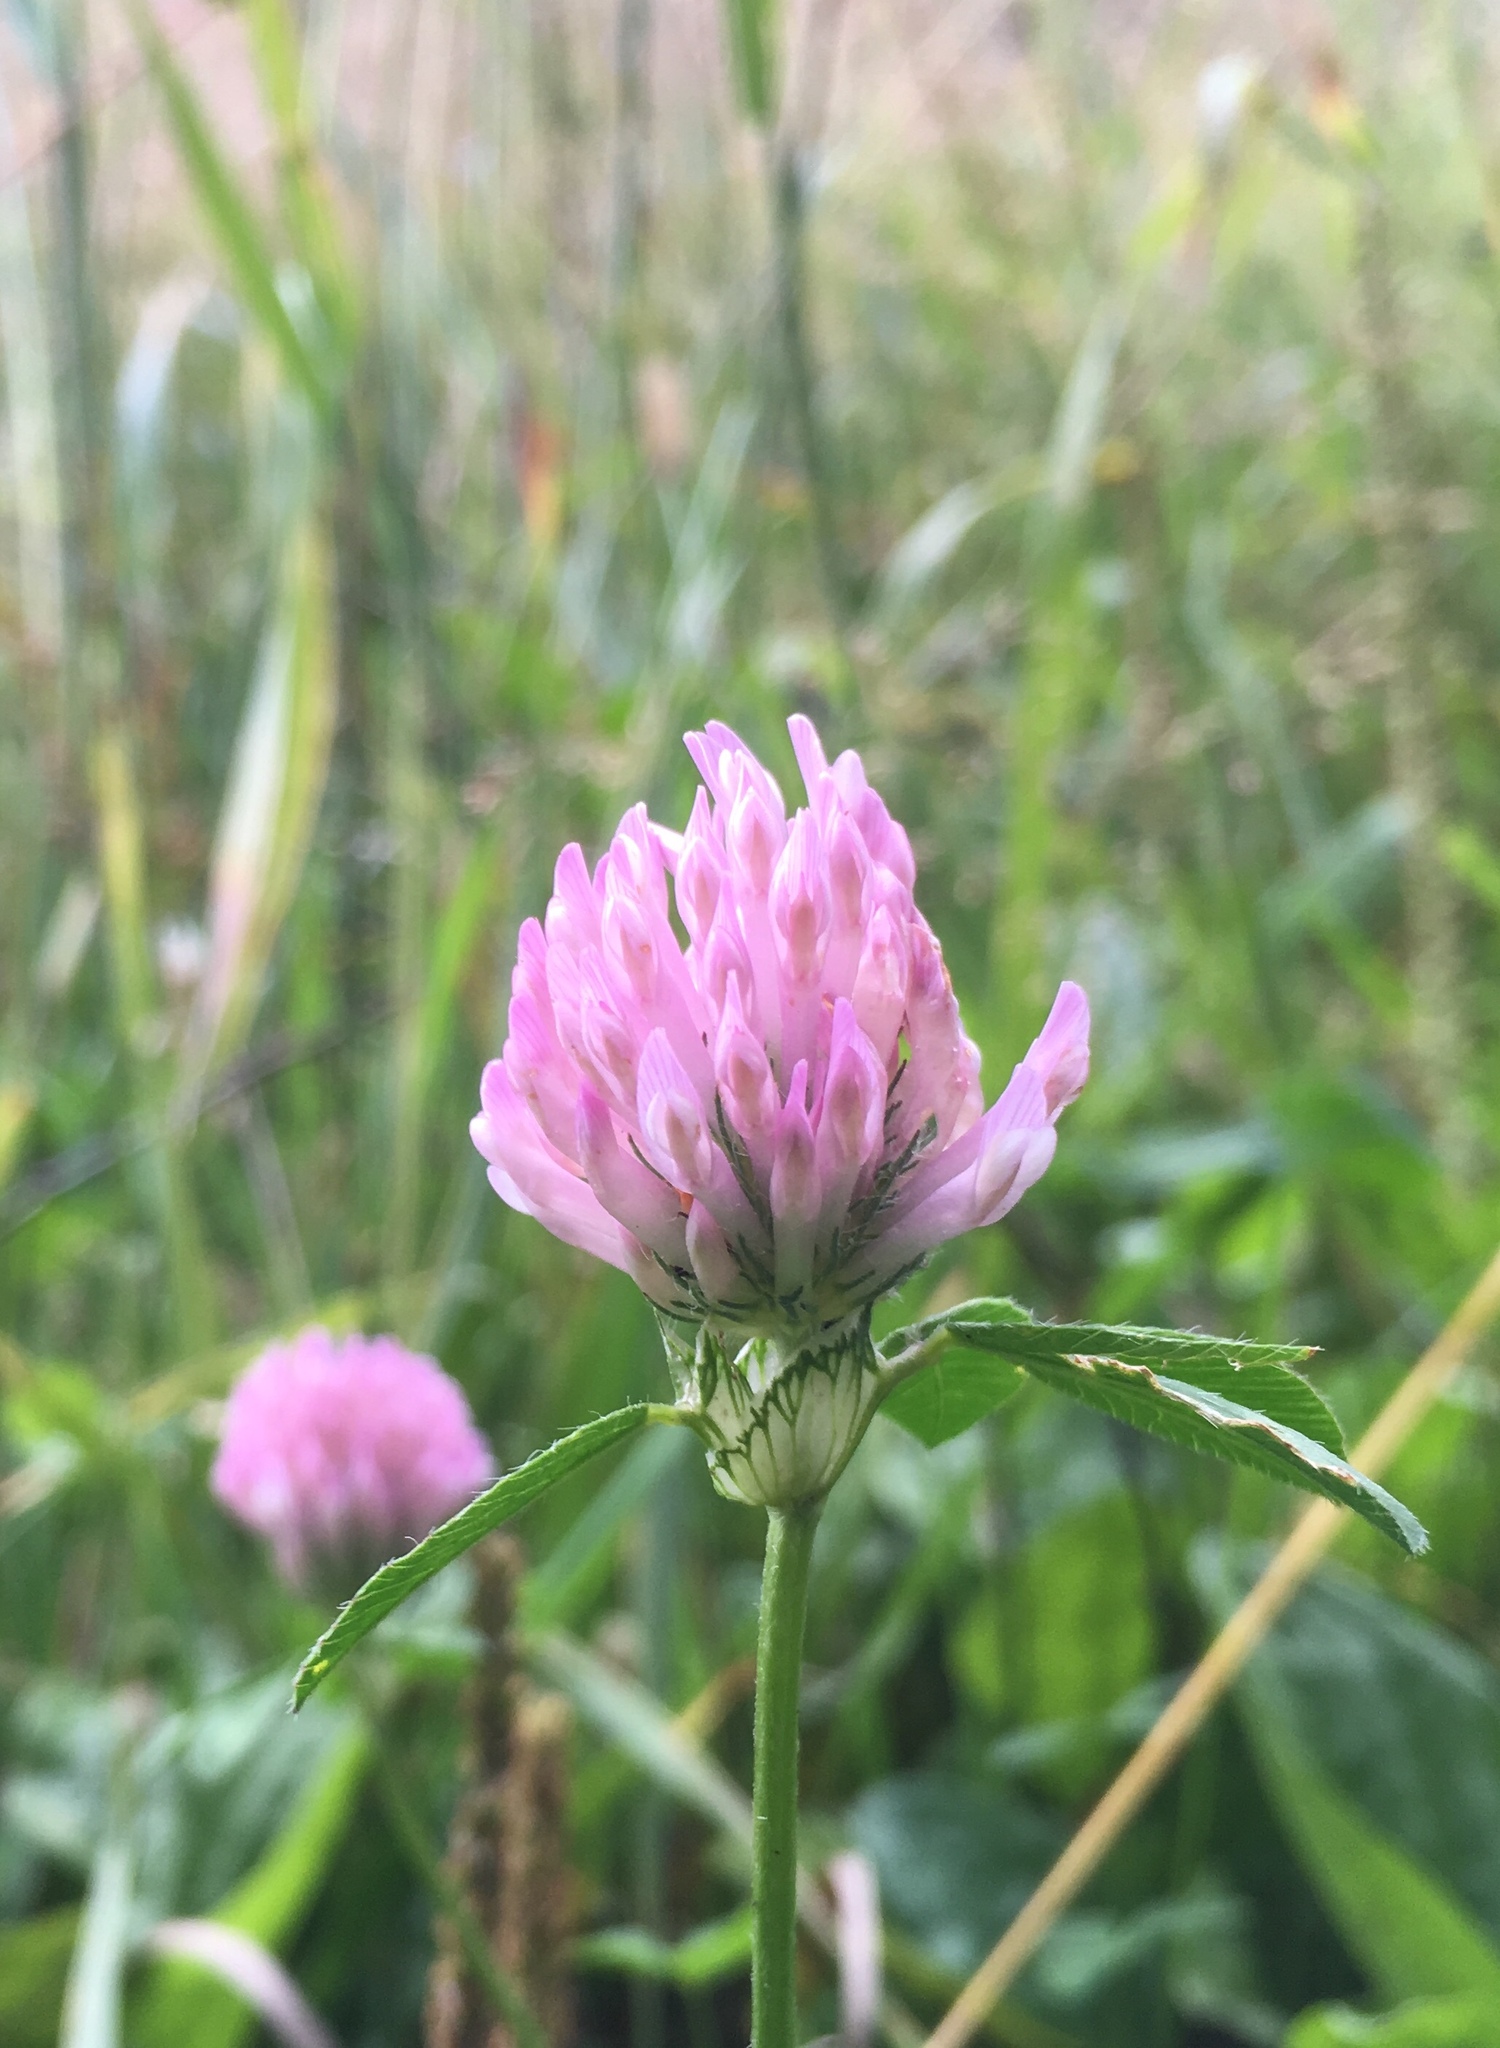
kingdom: Plantae
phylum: Tracheophyta
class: Magnoliopsida
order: Fabales
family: Fabaceae
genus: Trifolium
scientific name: Trifolium pratense
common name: Red clover
